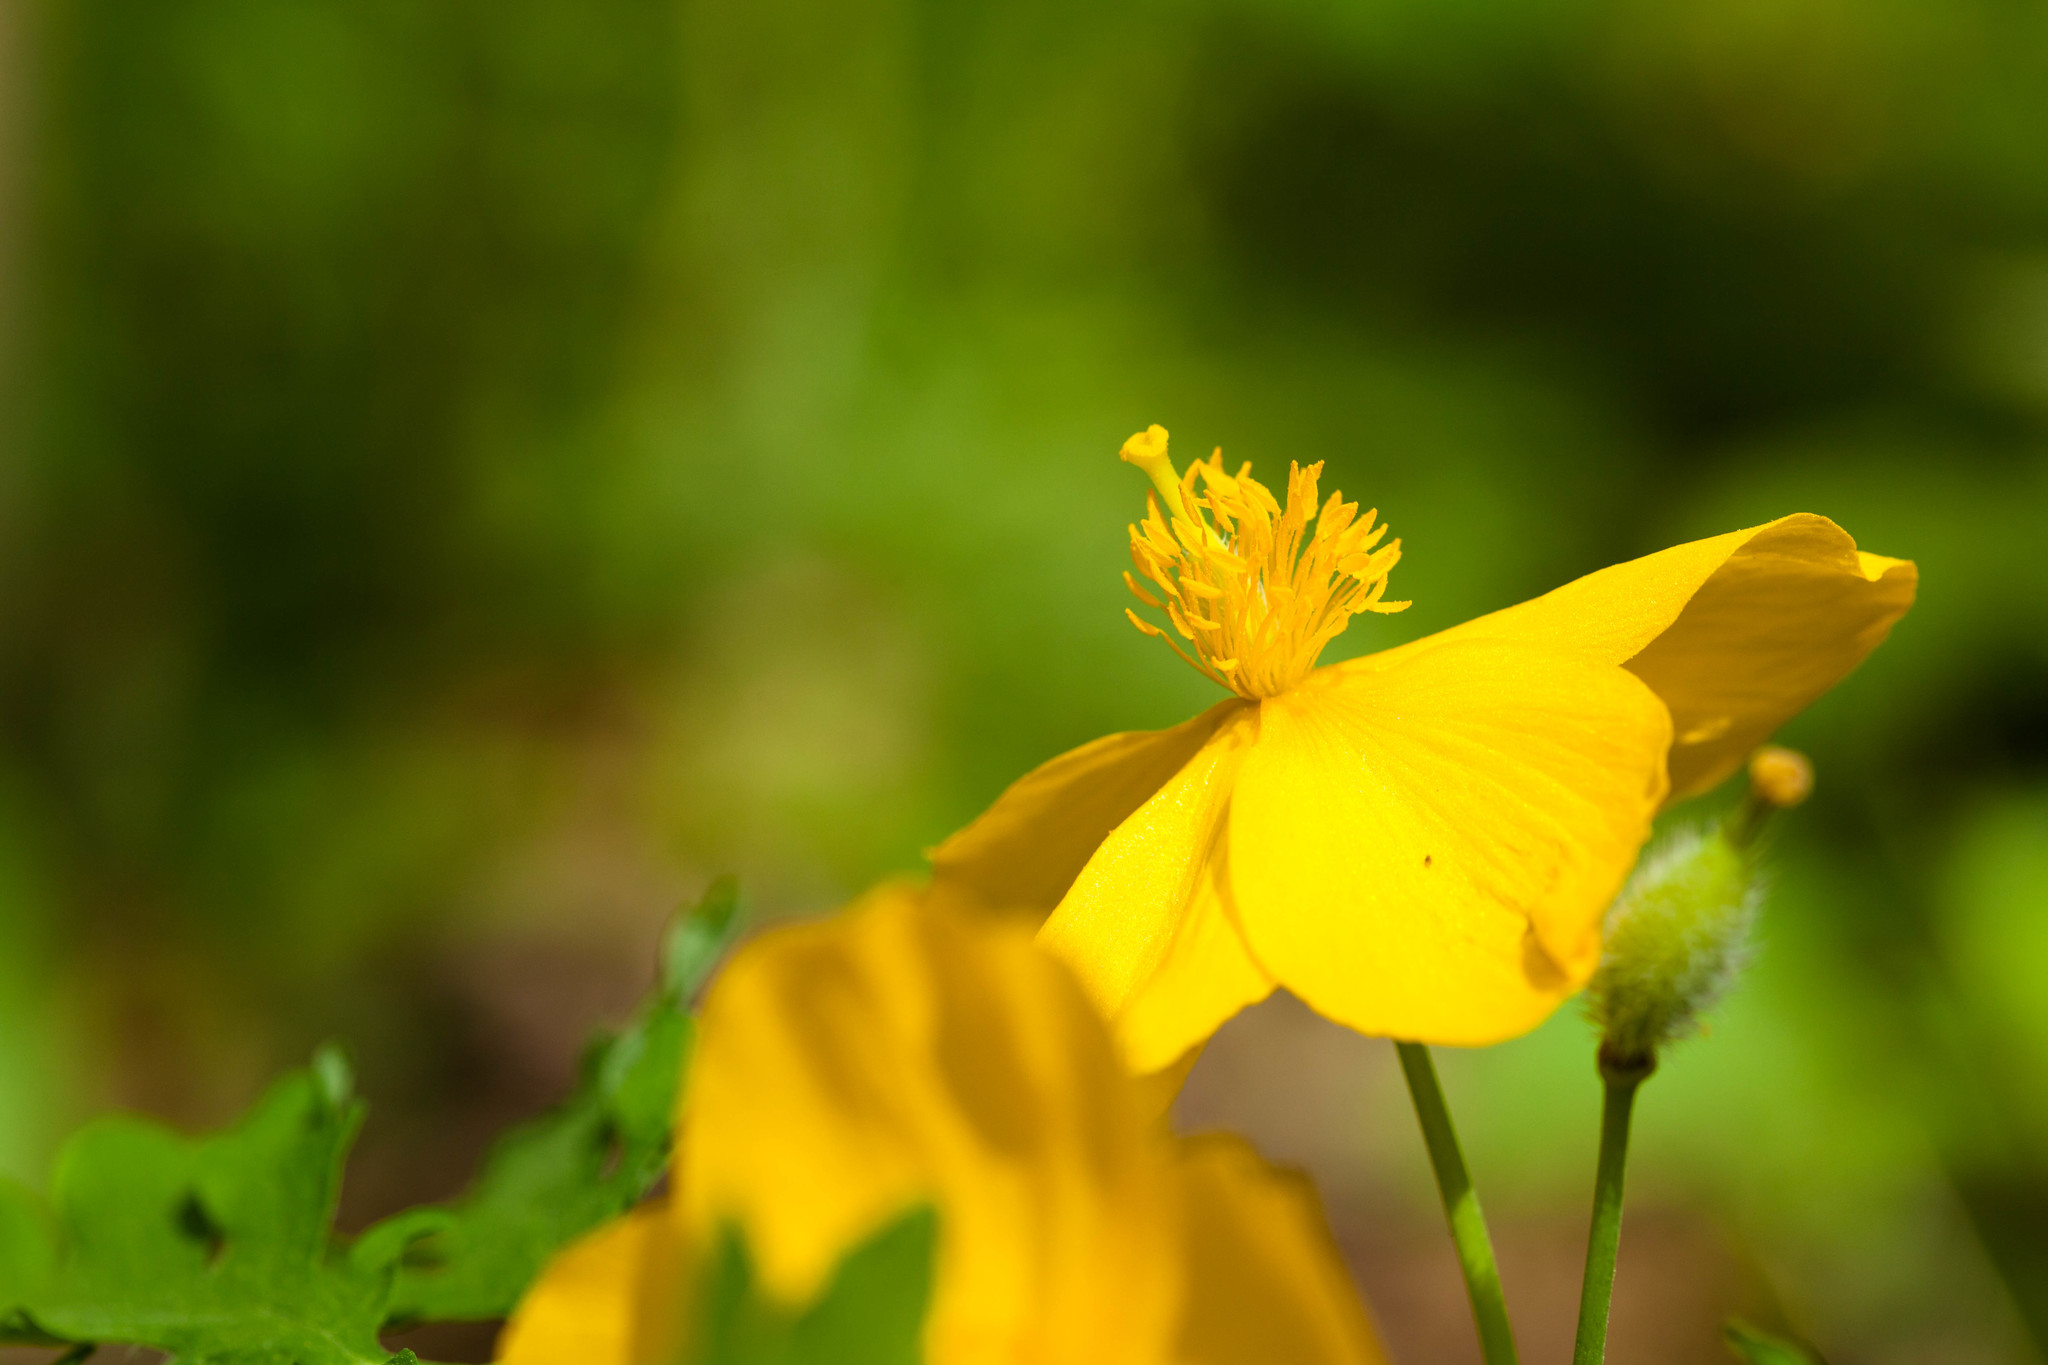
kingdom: Plantae
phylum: Tracheophyta
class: Magnoliopsida
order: Ranunculales
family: Papaveraceae
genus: Stylophorum
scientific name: Stylophorum diphyllum
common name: Celandine poppy
